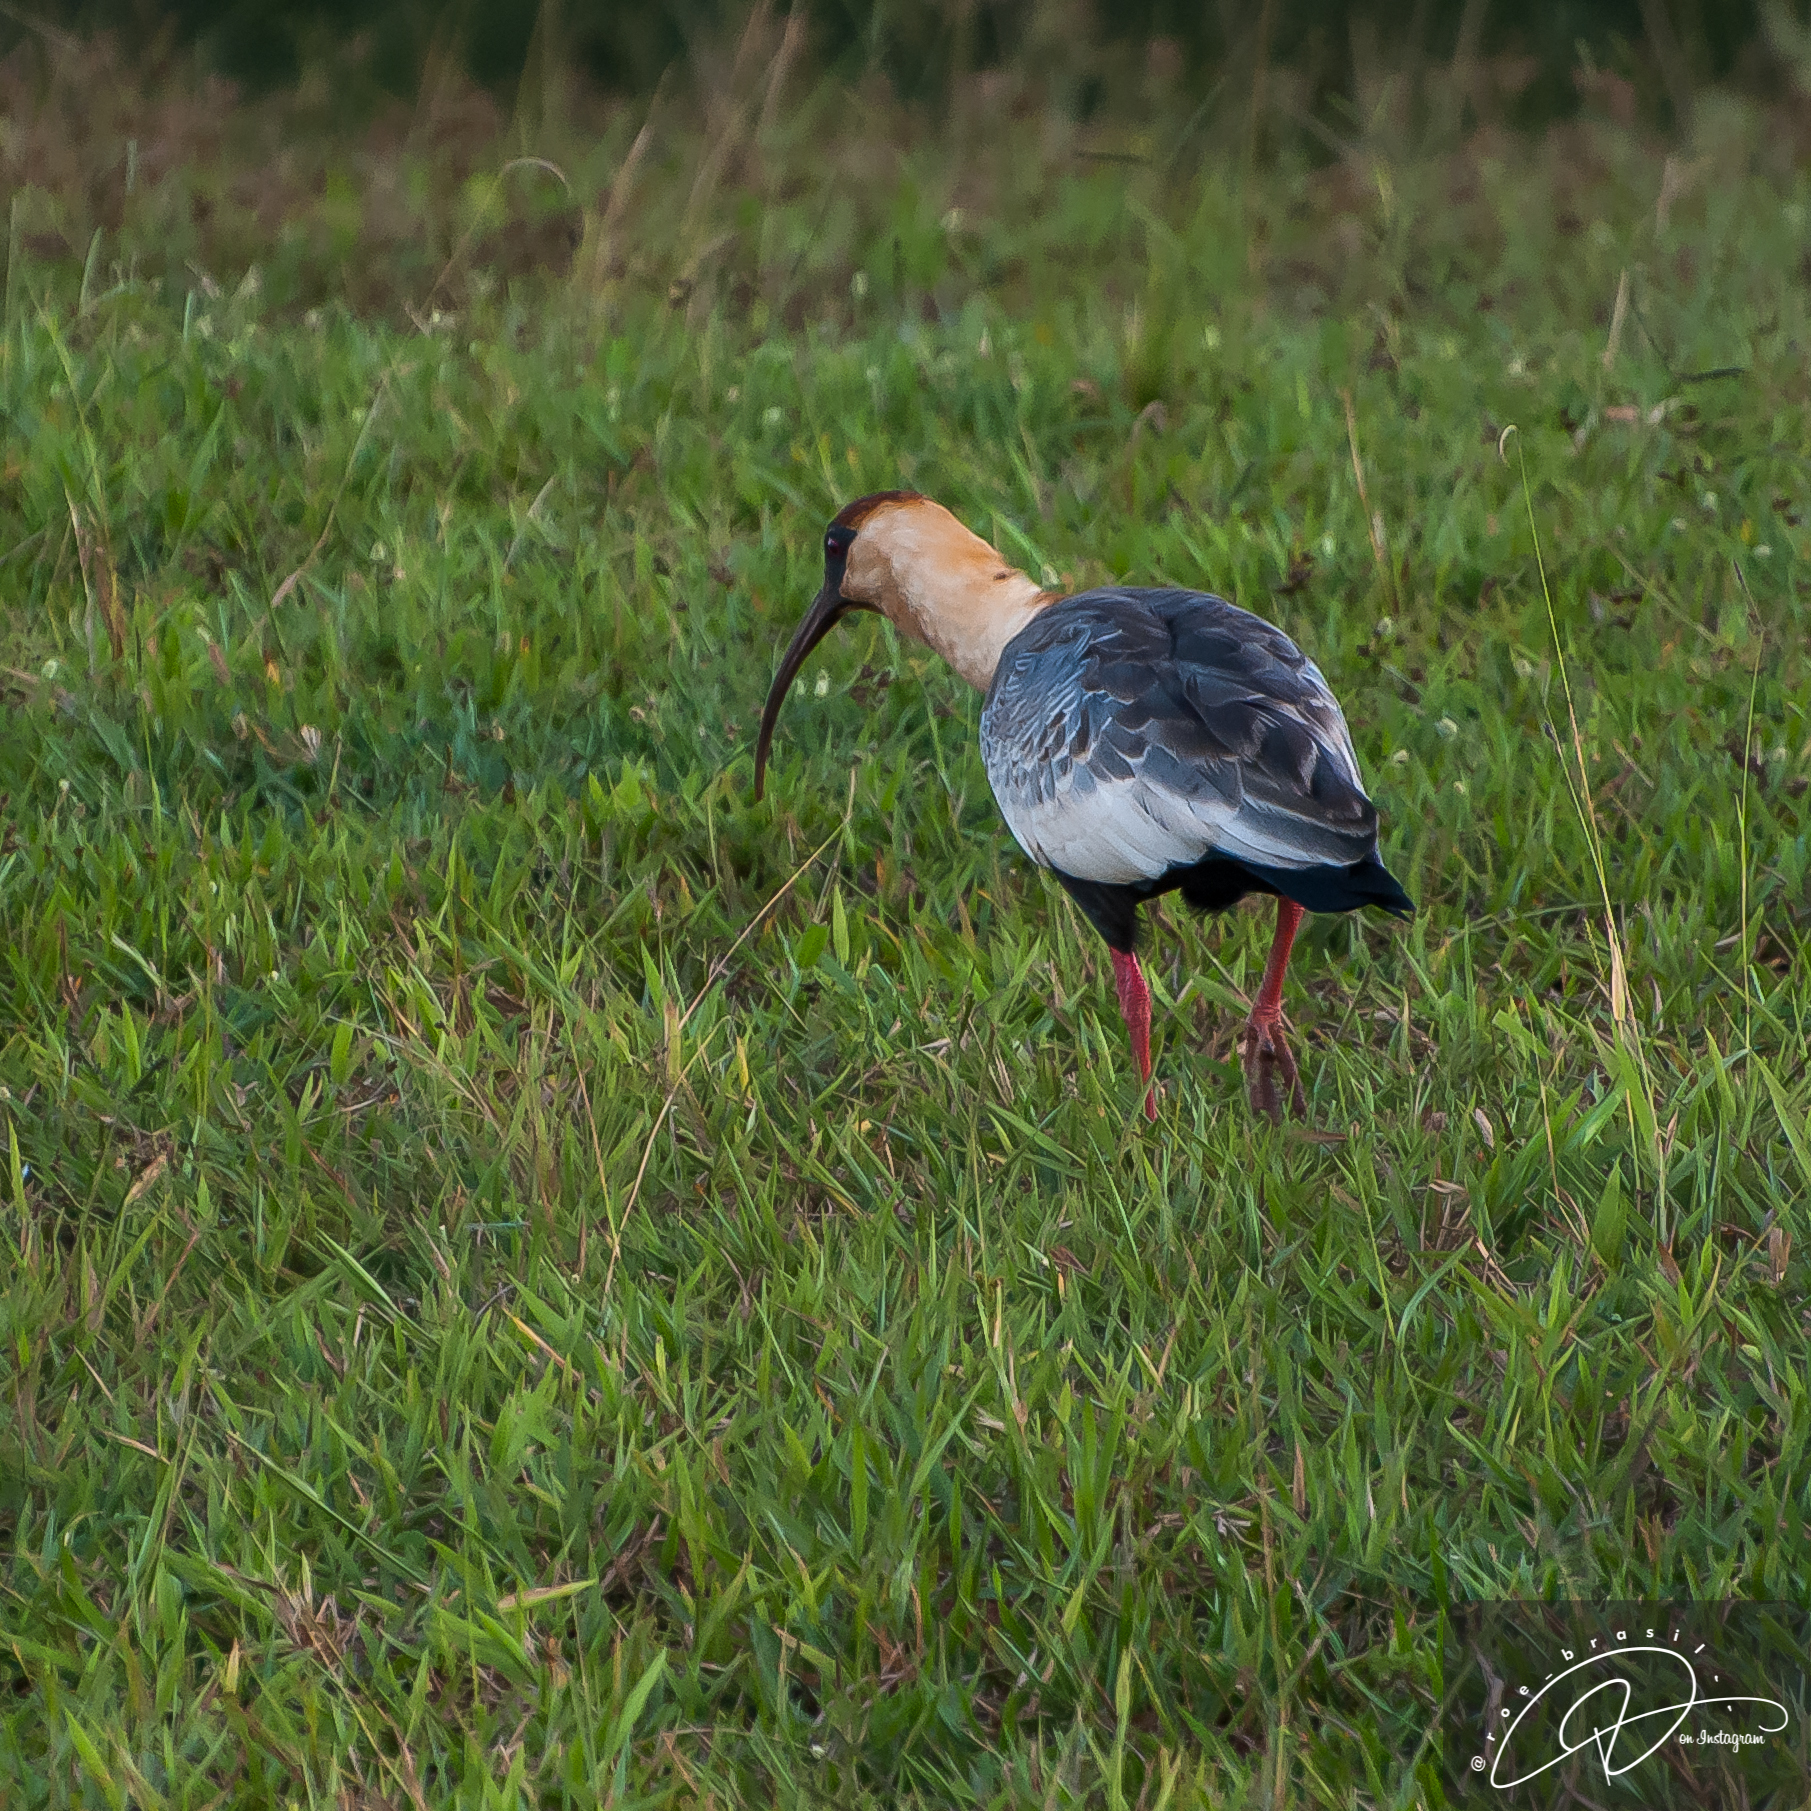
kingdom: Animalia
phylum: Chordata
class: Aves
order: Pelecaniformes
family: Threskiornithidae
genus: Theristicus
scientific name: Theristicus caudatus
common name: Buff-necked ibis
